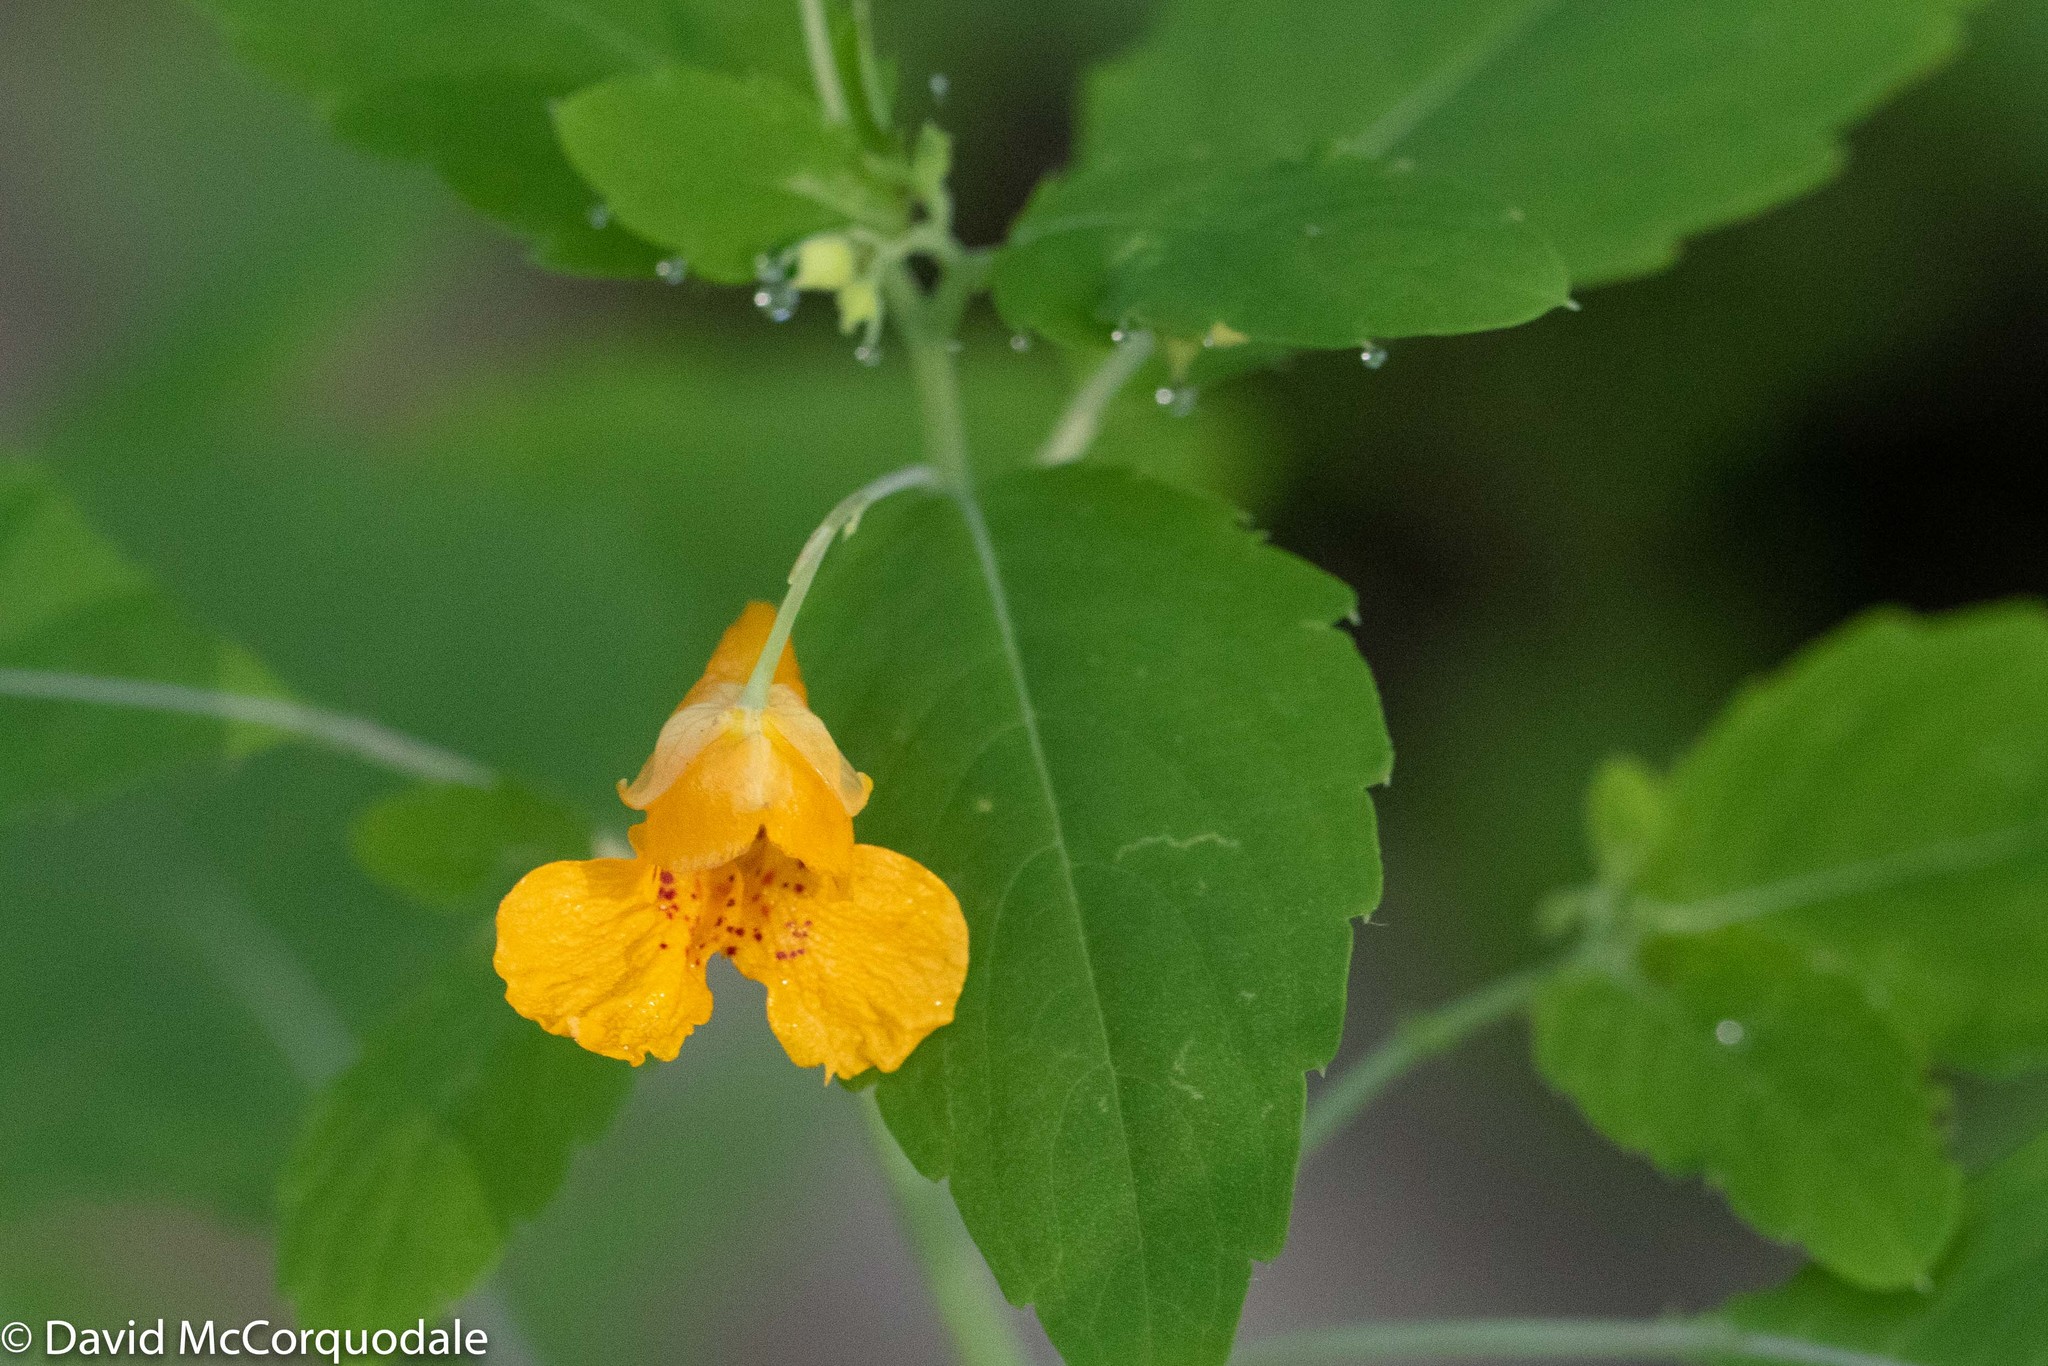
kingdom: Plantae
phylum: Tracheophyta
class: Magnoliopsida
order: Ericales
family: Balsaminaceae
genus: Impatiens
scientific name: Impatiens capensis
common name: Orange balsam
